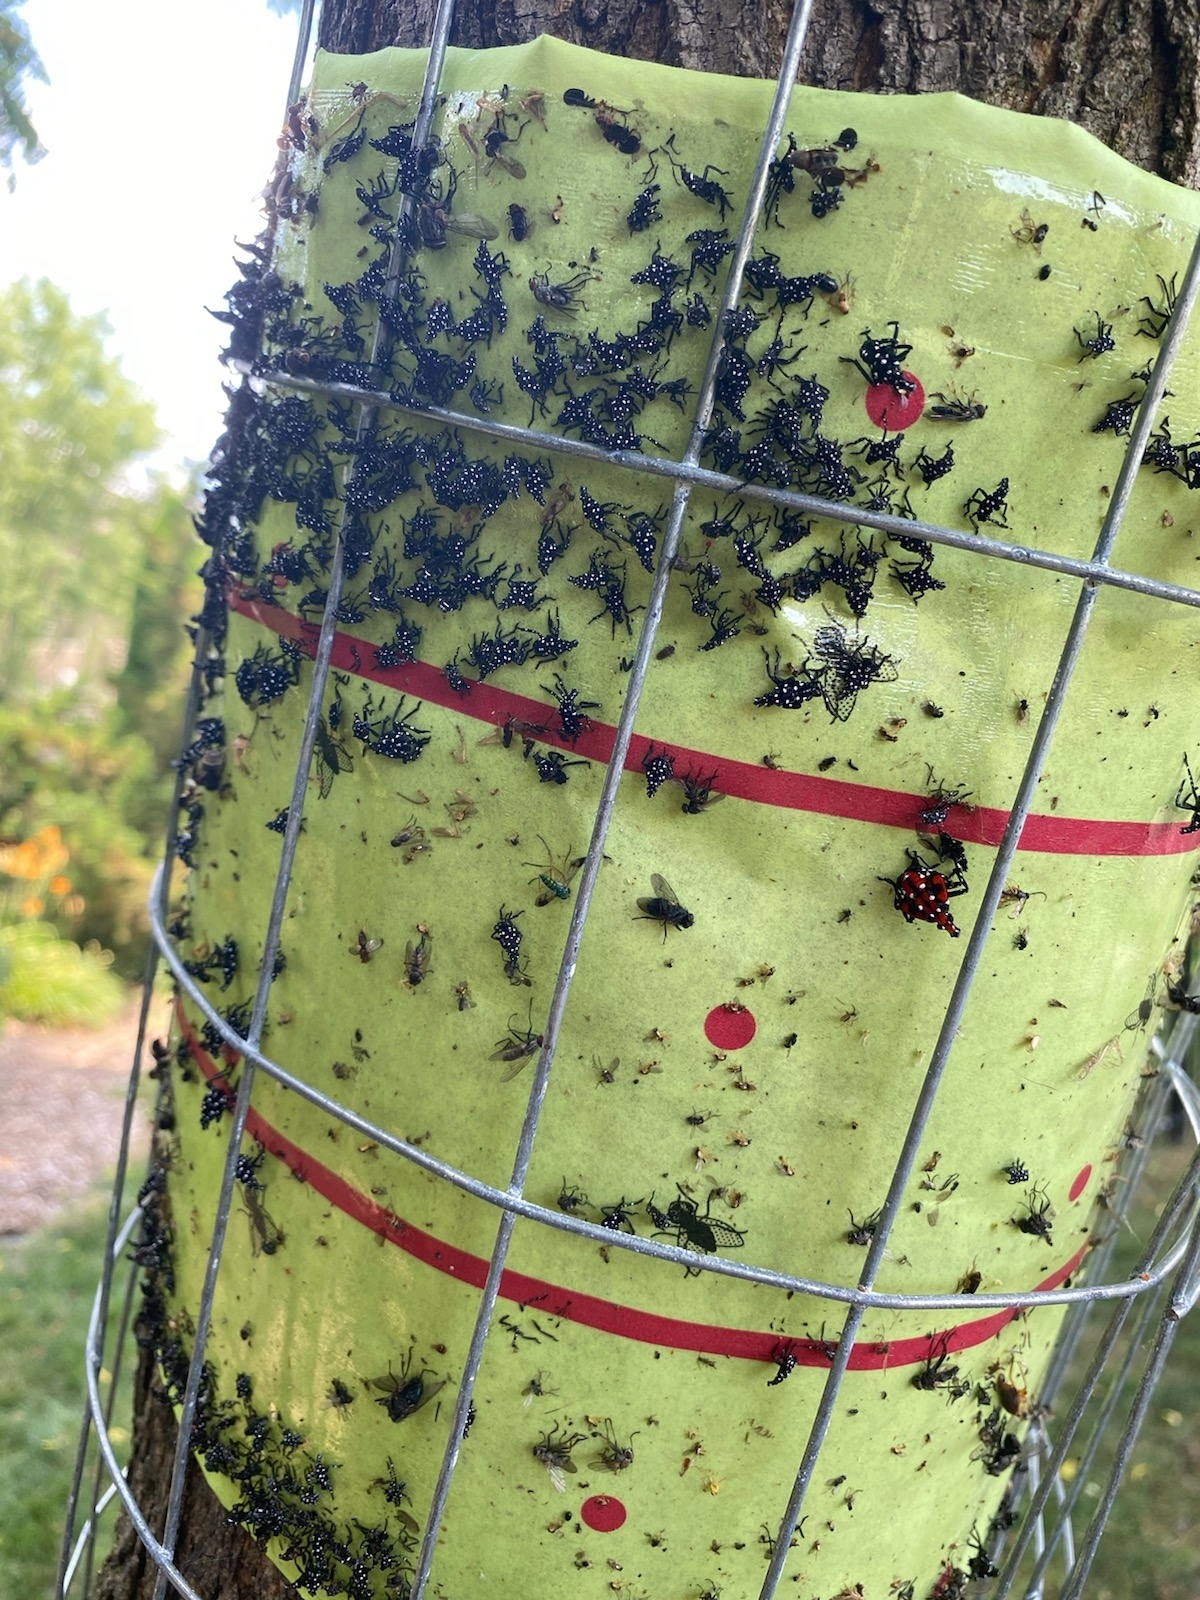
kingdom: Animalia
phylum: Arthropoda
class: Insecta
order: Hemiptera
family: Fulgoridae
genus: Lycorma
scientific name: Lycorma delicatula
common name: Spotted lanternfly
